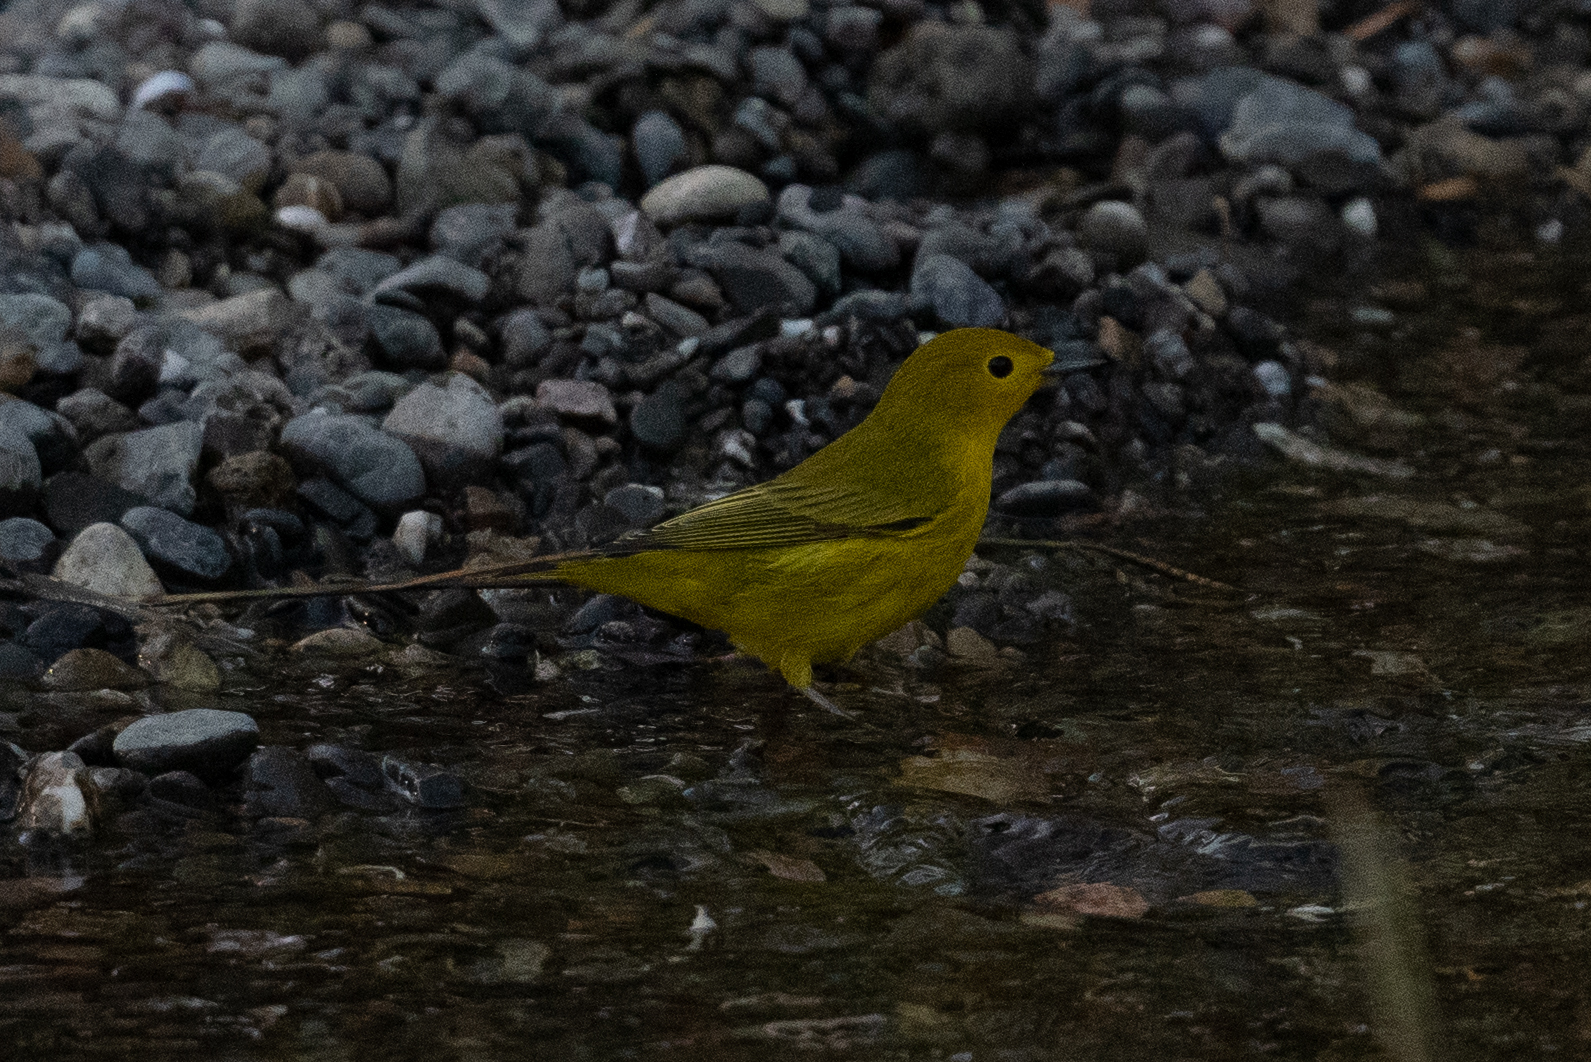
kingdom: Animalia
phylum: Chordata
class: Aves
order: Passeriformes
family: Parulidae
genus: Setophaga
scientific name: Setophaga petechia
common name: Yellow warbler
